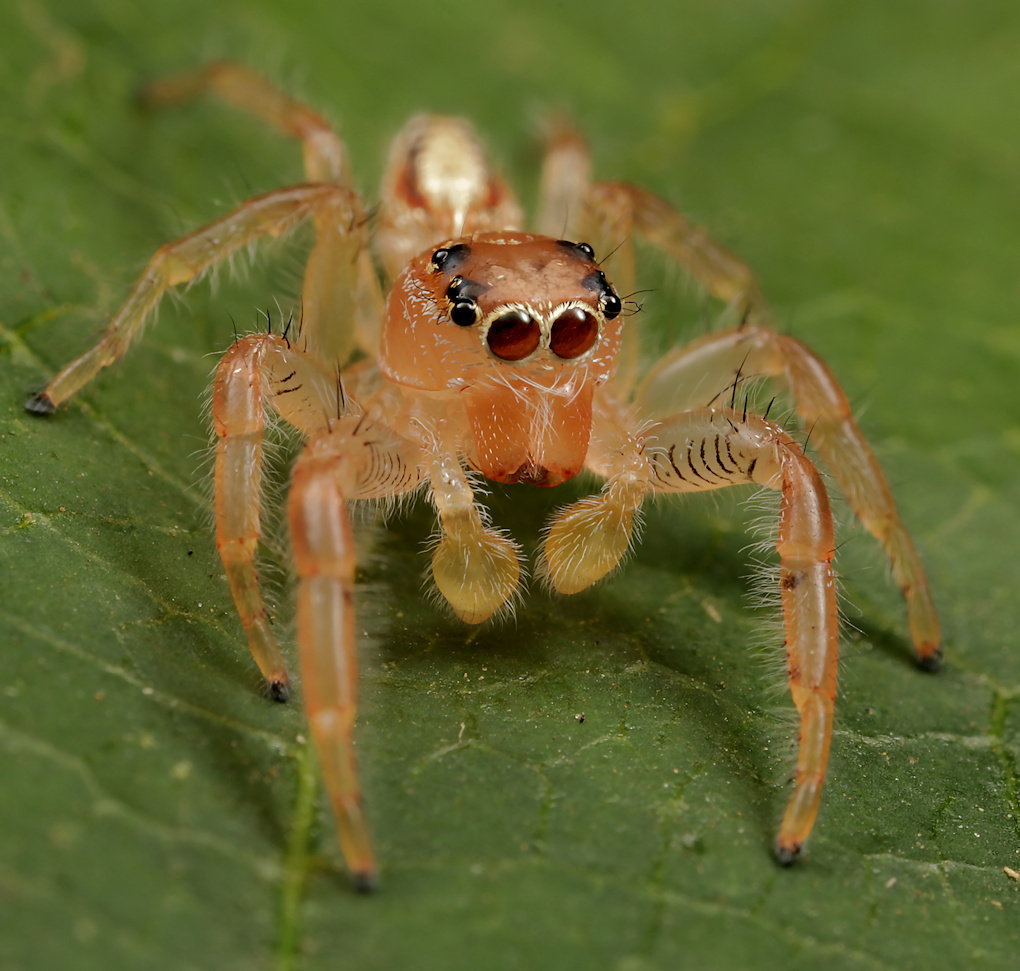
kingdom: Animalia
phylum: Arthropoda
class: Arachnida
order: Araneae
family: Salticidae
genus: Thyene
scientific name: Thyene ogdeni
